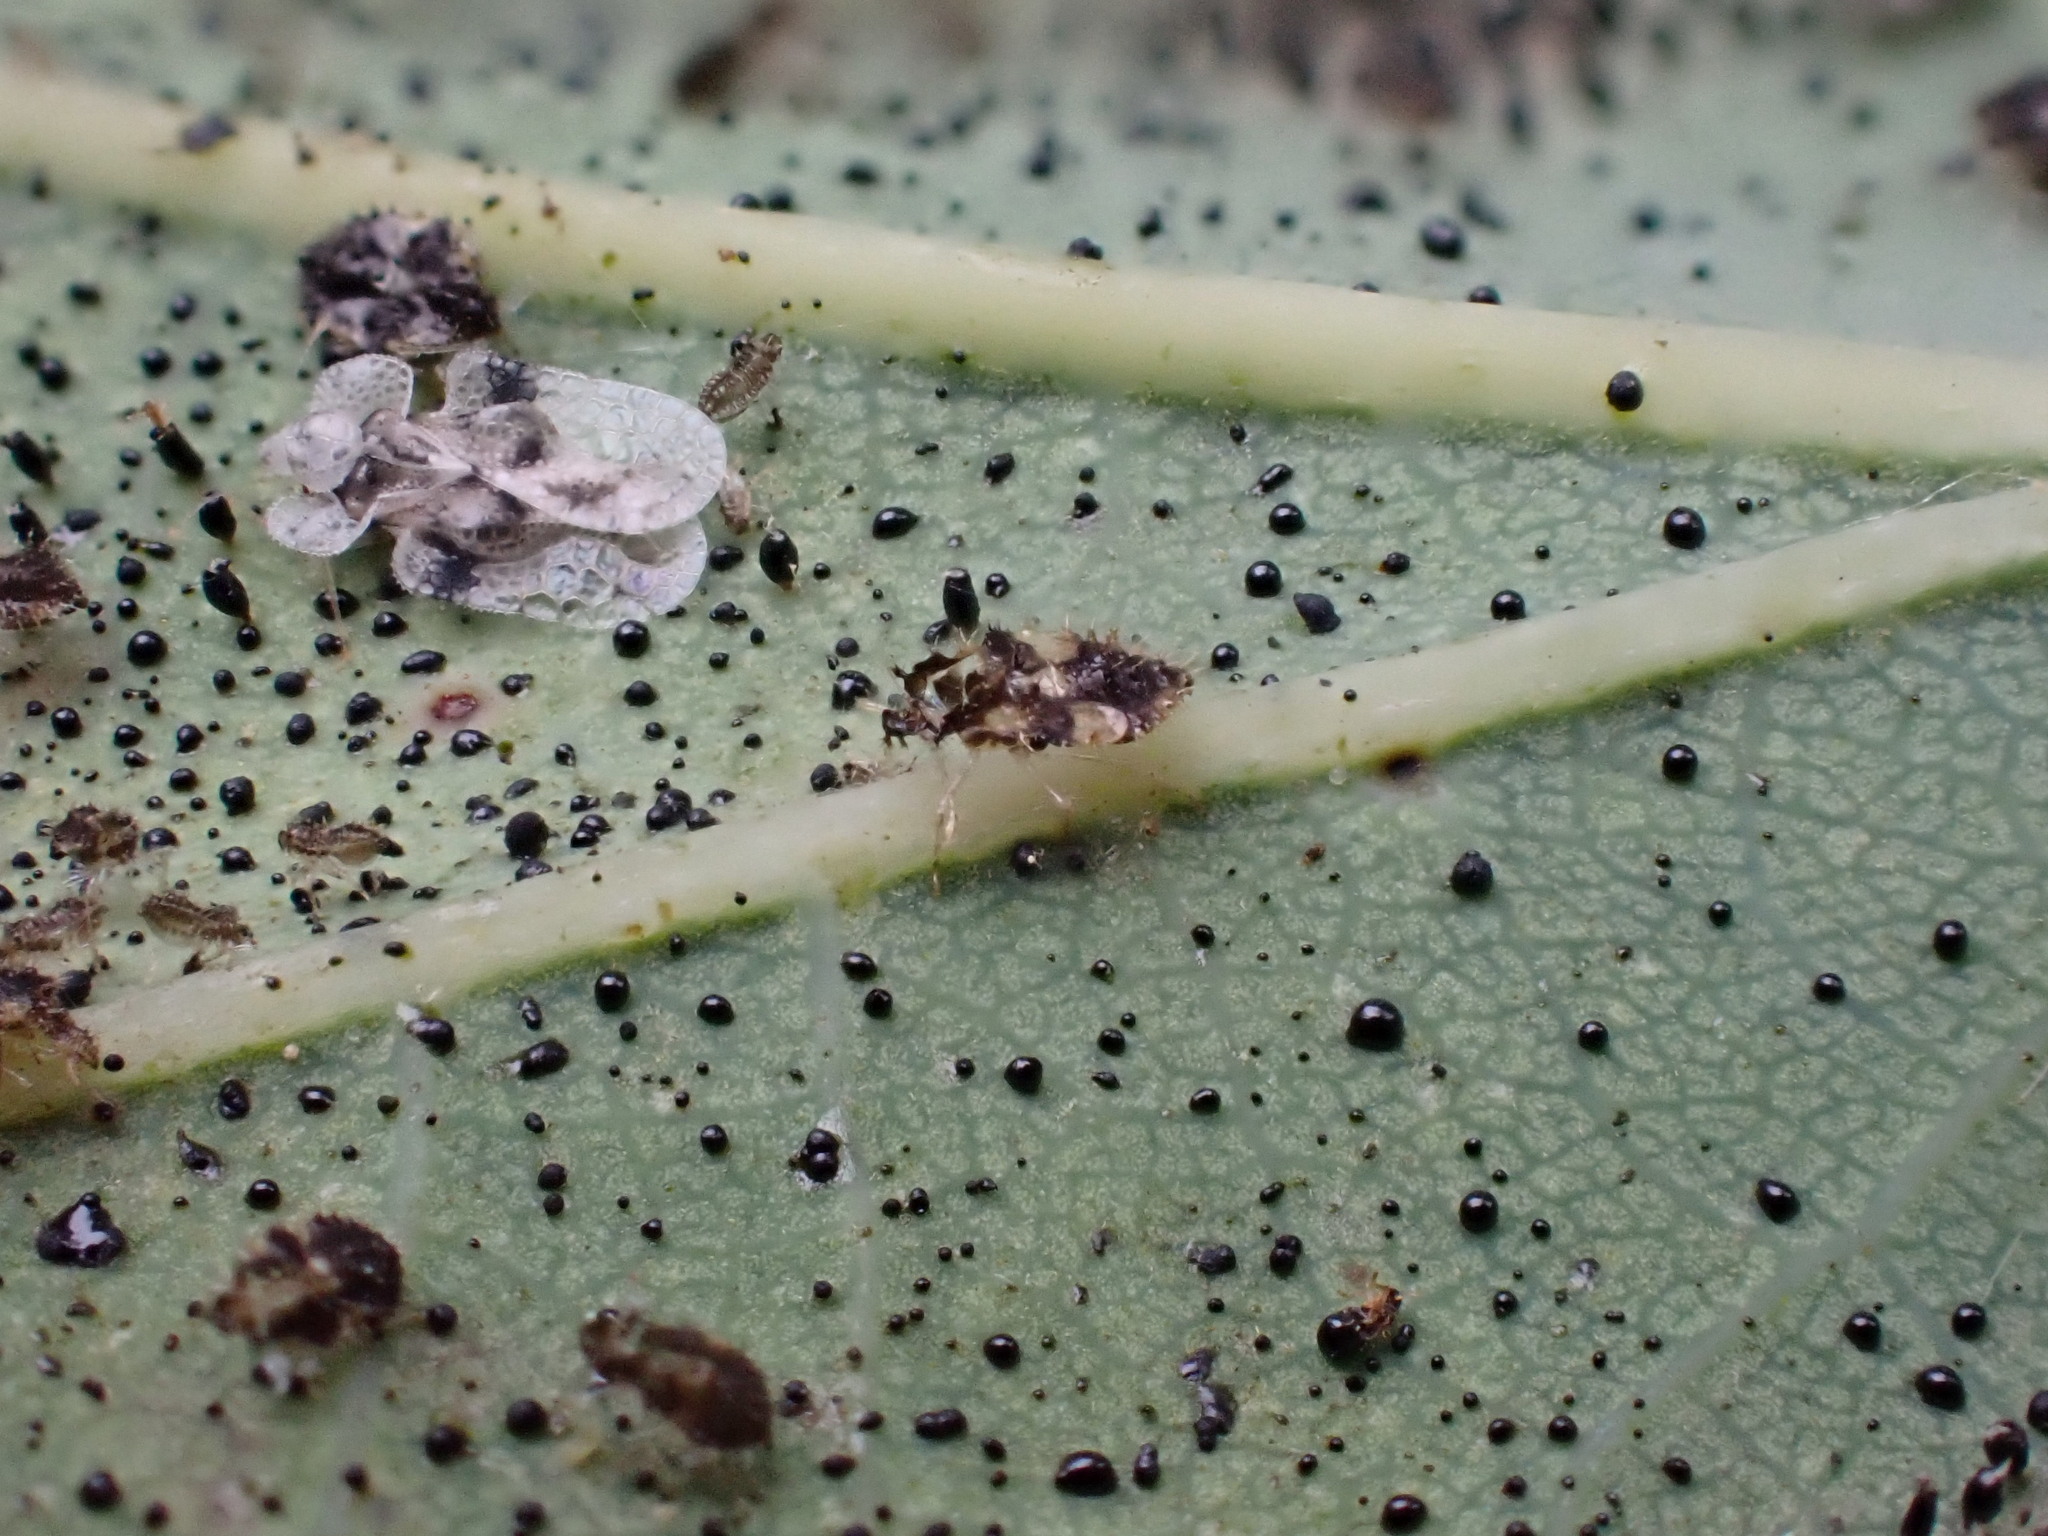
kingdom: Animalia
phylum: Arthropoda
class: Insecta
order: Hemiptera
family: Tingidae
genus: Corythucha
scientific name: Corythucha arcuata
